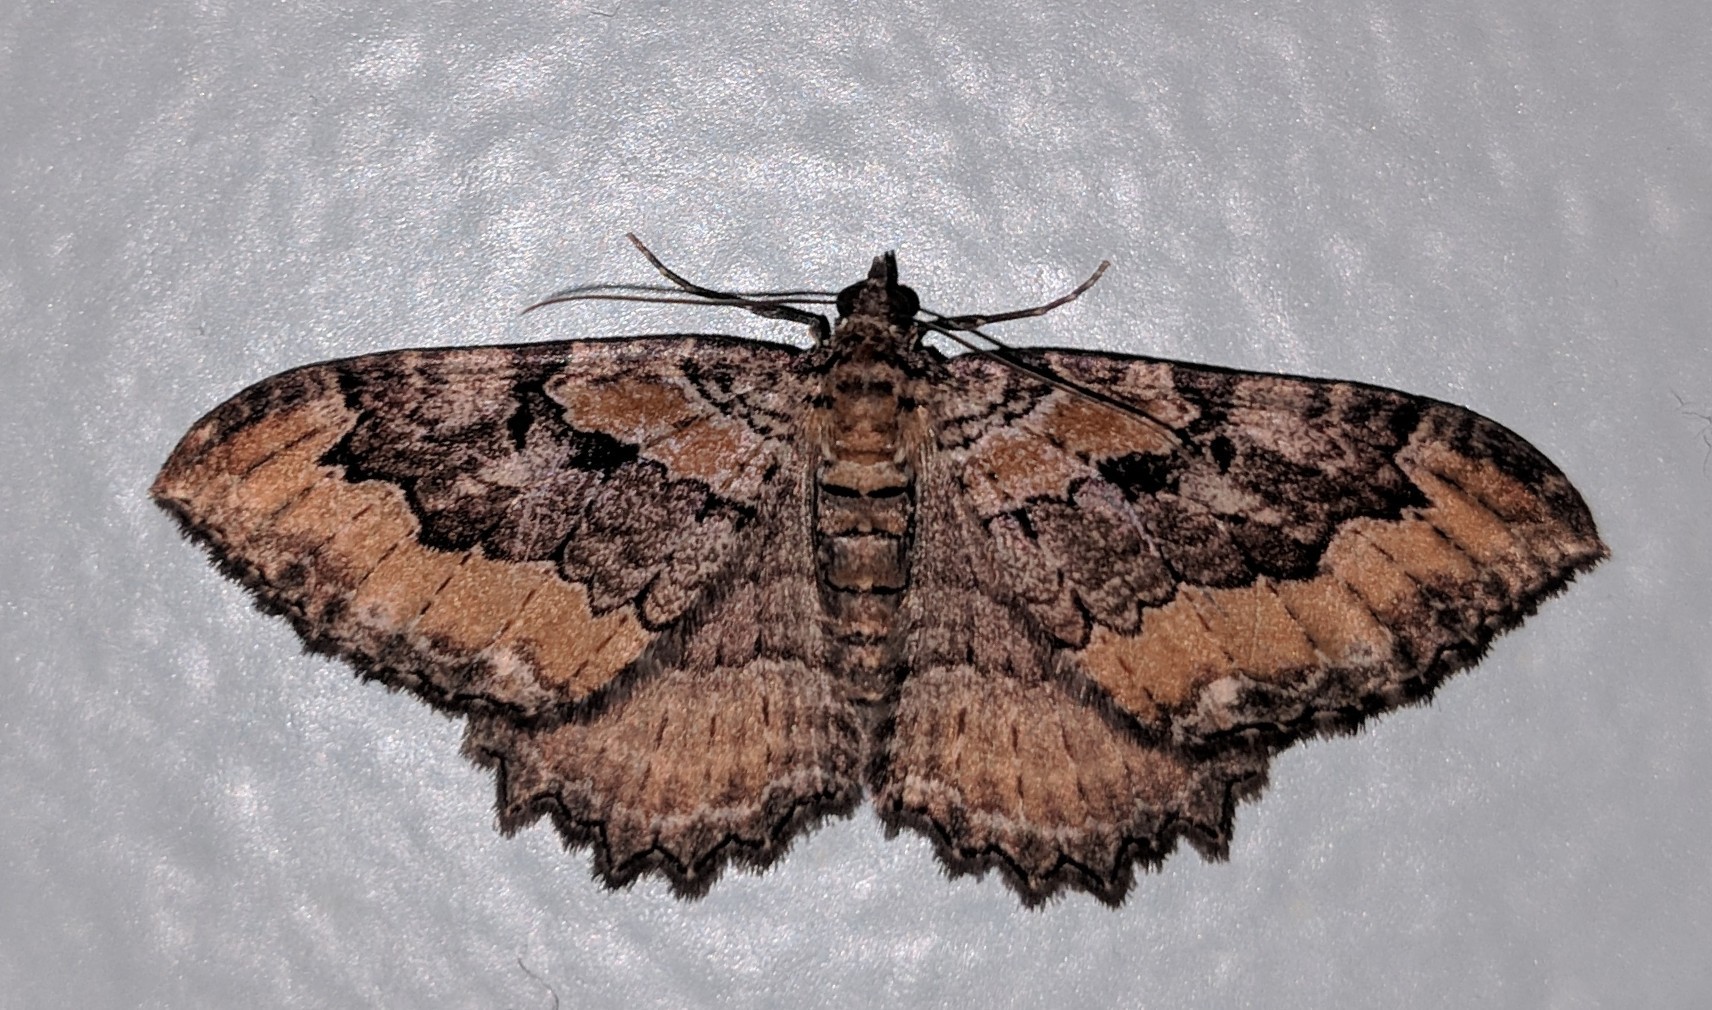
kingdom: Animalia
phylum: Arthropoda
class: Insecta
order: Lepidoptera
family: Geometridae
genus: Rheumaptera
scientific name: Rheumaptera
